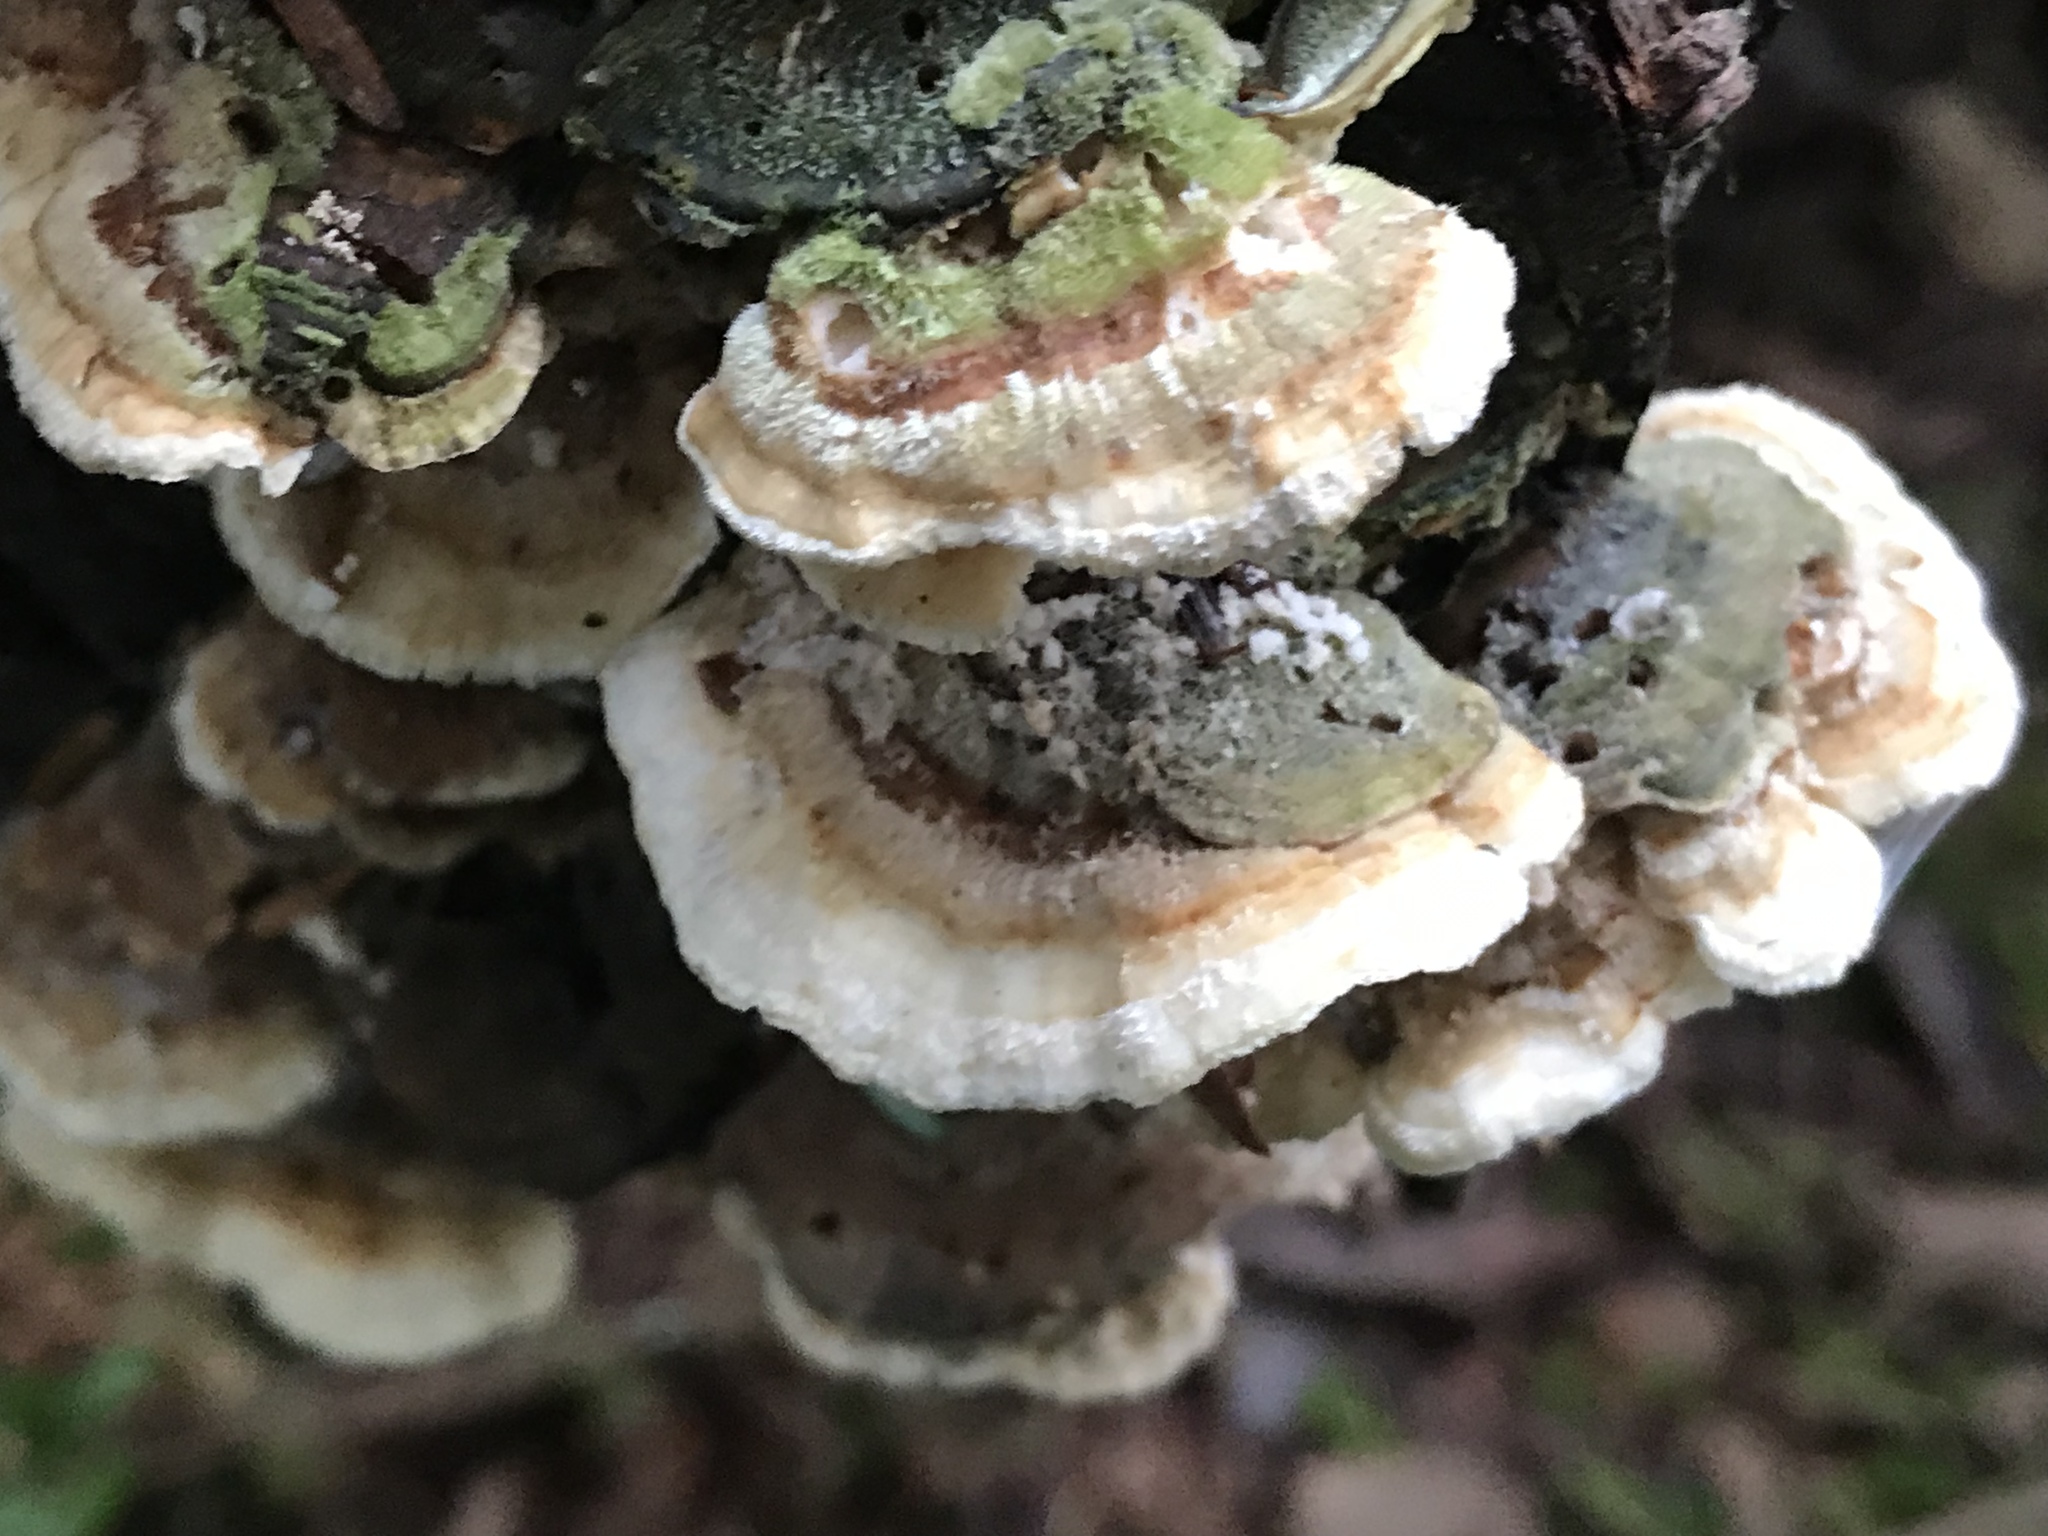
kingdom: Fungi
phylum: Basidiomycota
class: Agaricomycetes
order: Polyporales
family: Polyporaceae
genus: Trametes
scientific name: Trametes versicolor
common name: Turkeytail
